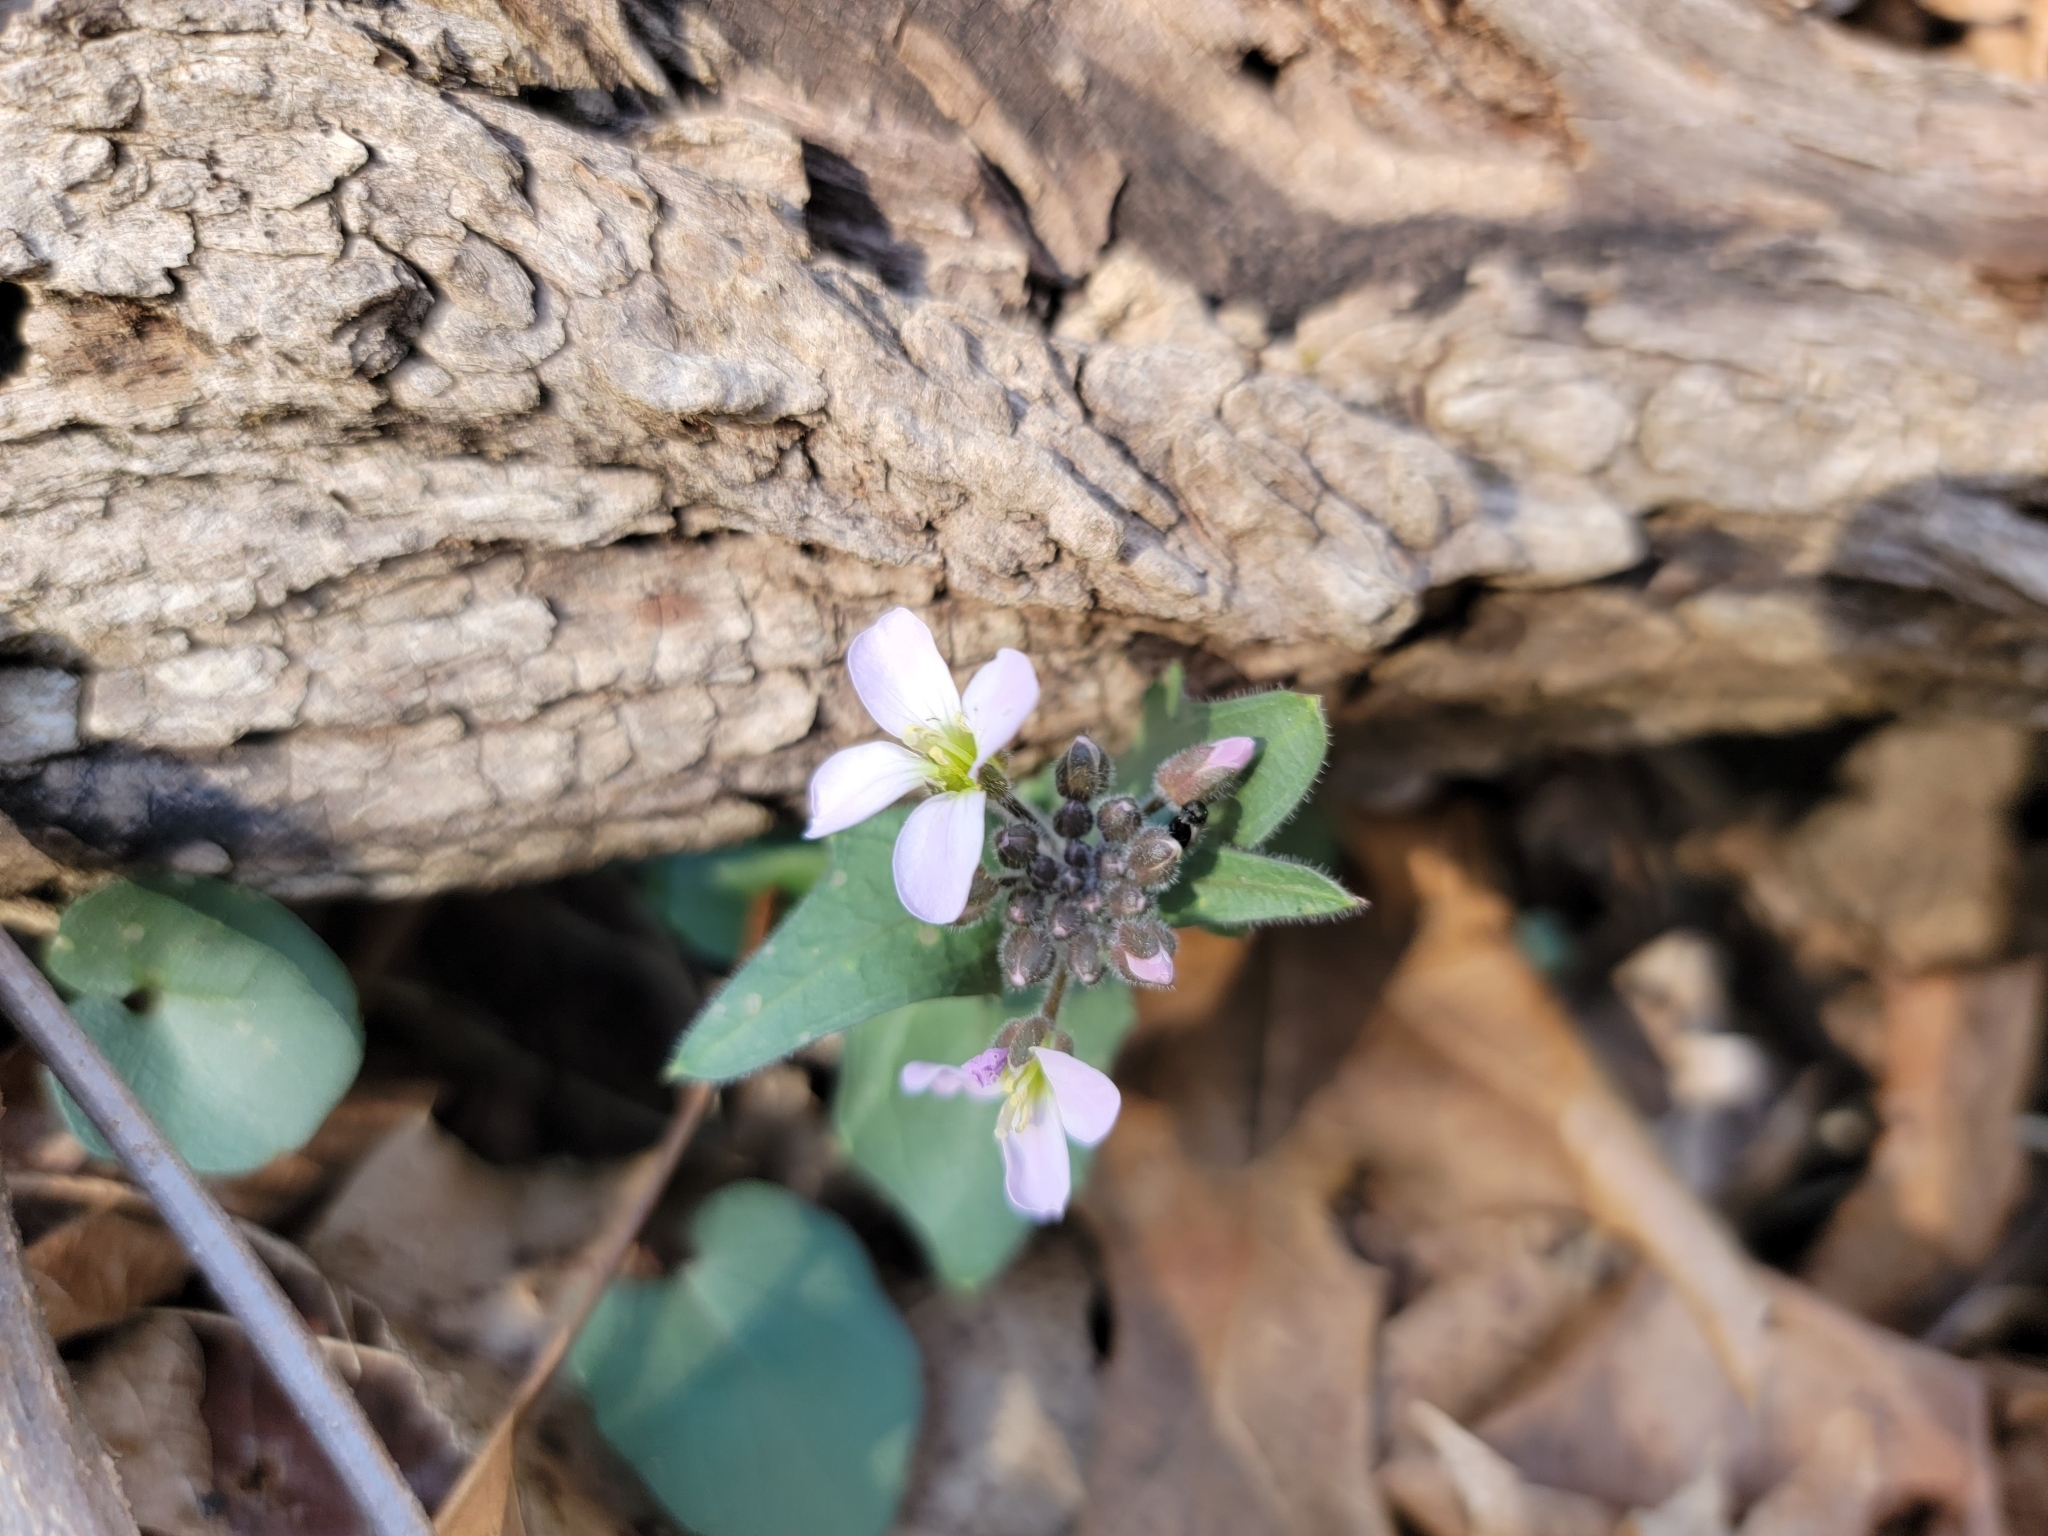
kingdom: Plantae
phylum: Tracheophyta
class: Magnoliopsida
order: Brassicales
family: Brassicaceae
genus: Cardamine
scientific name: Cardamine douglassii
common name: Purple cress
